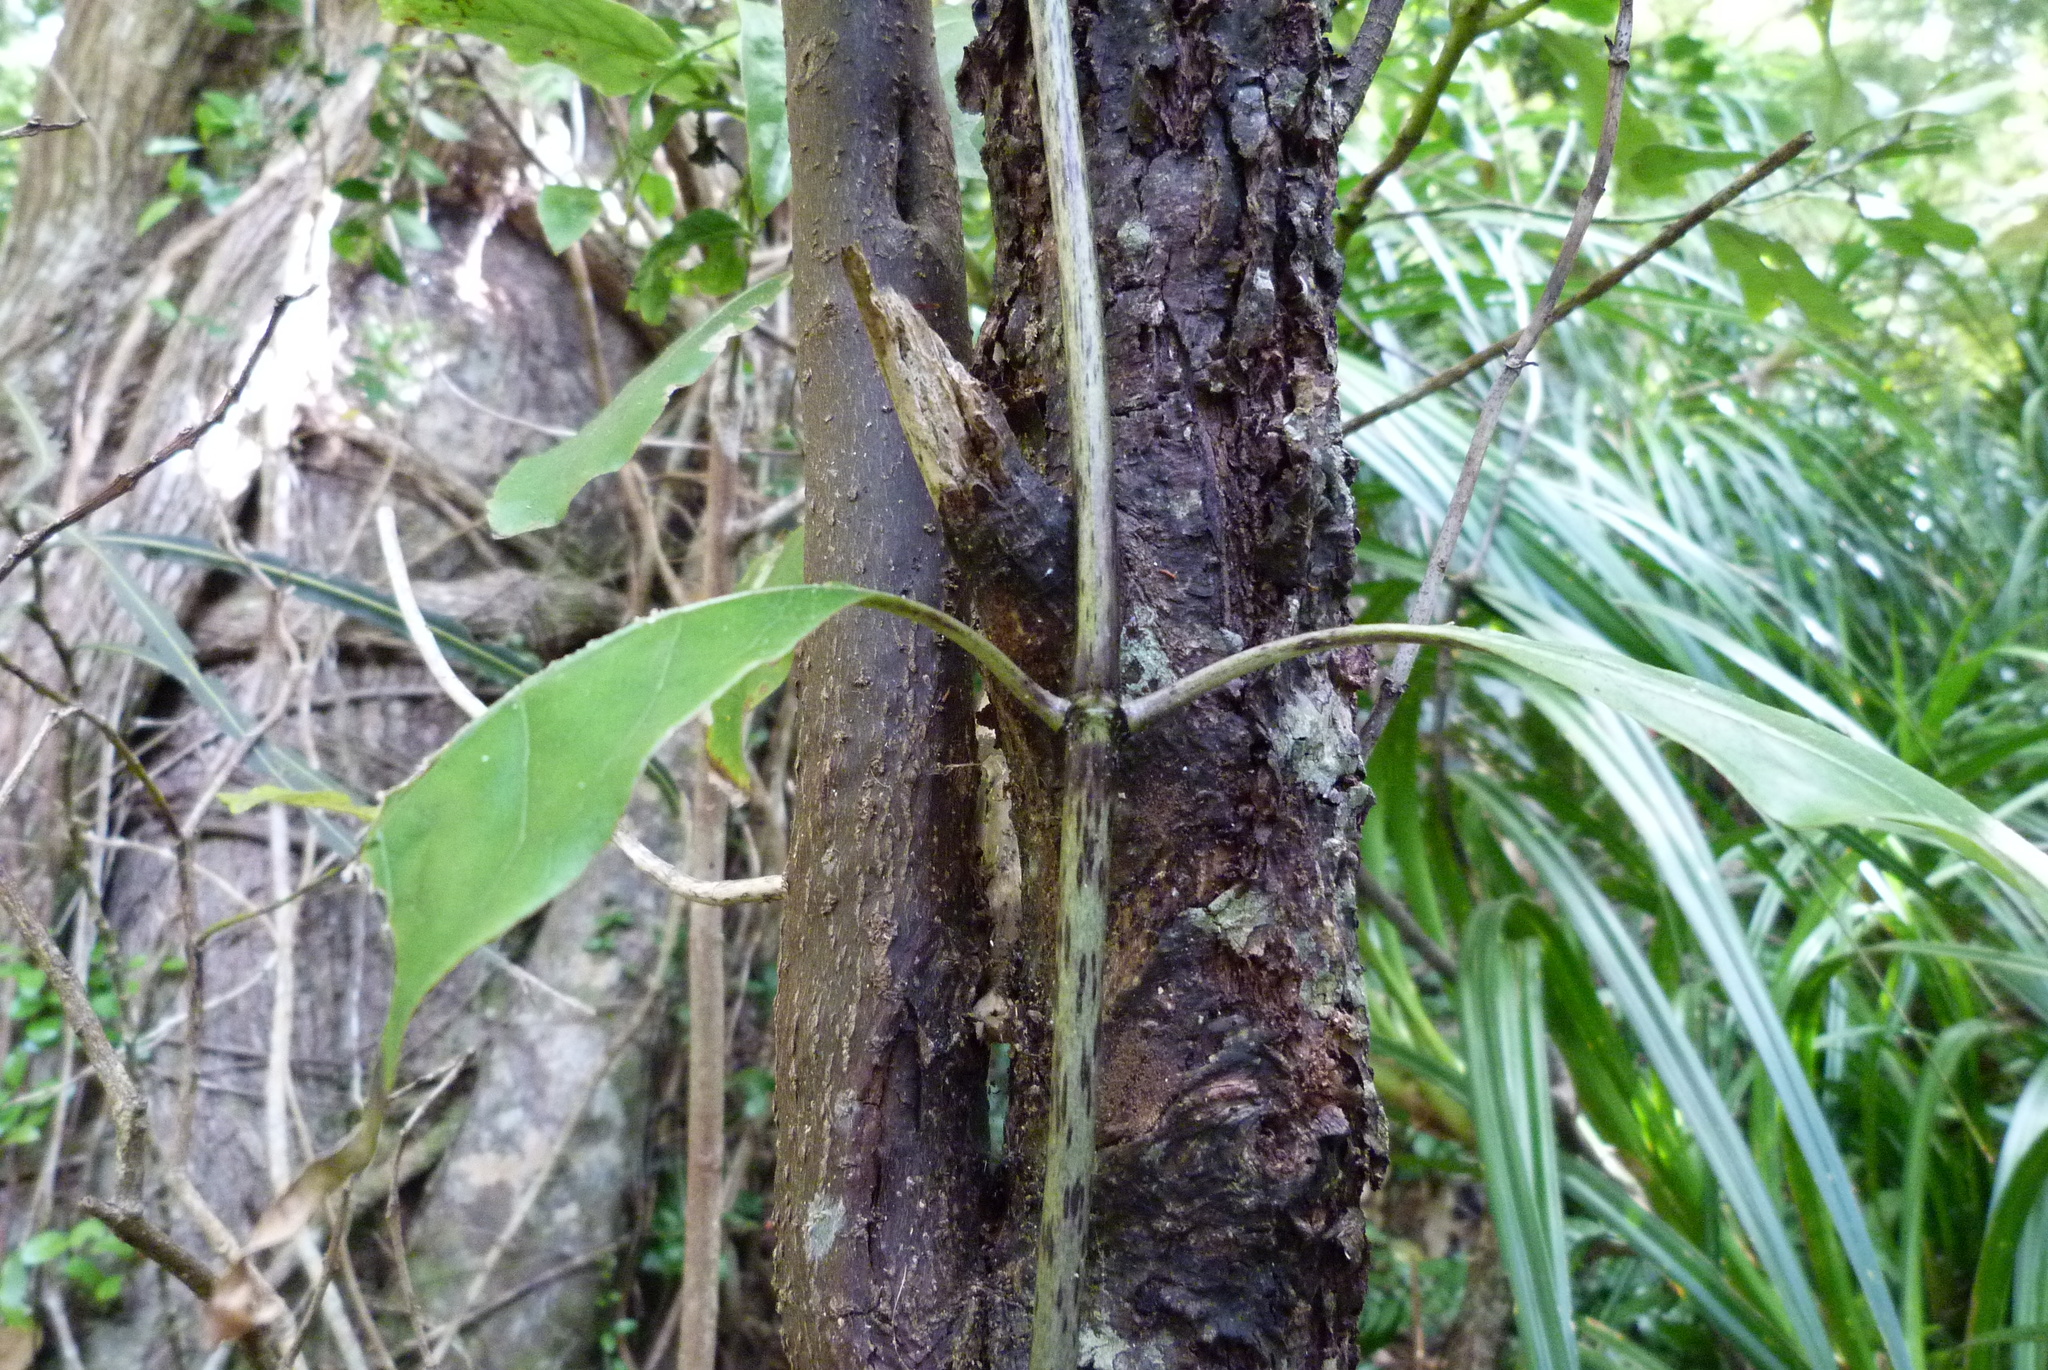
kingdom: Plantae
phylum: Tracheophyta
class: Magnoliopsida
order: Gentianales
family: Rubiaceae
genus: Coprosma
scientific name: Coprosma autumnalis
